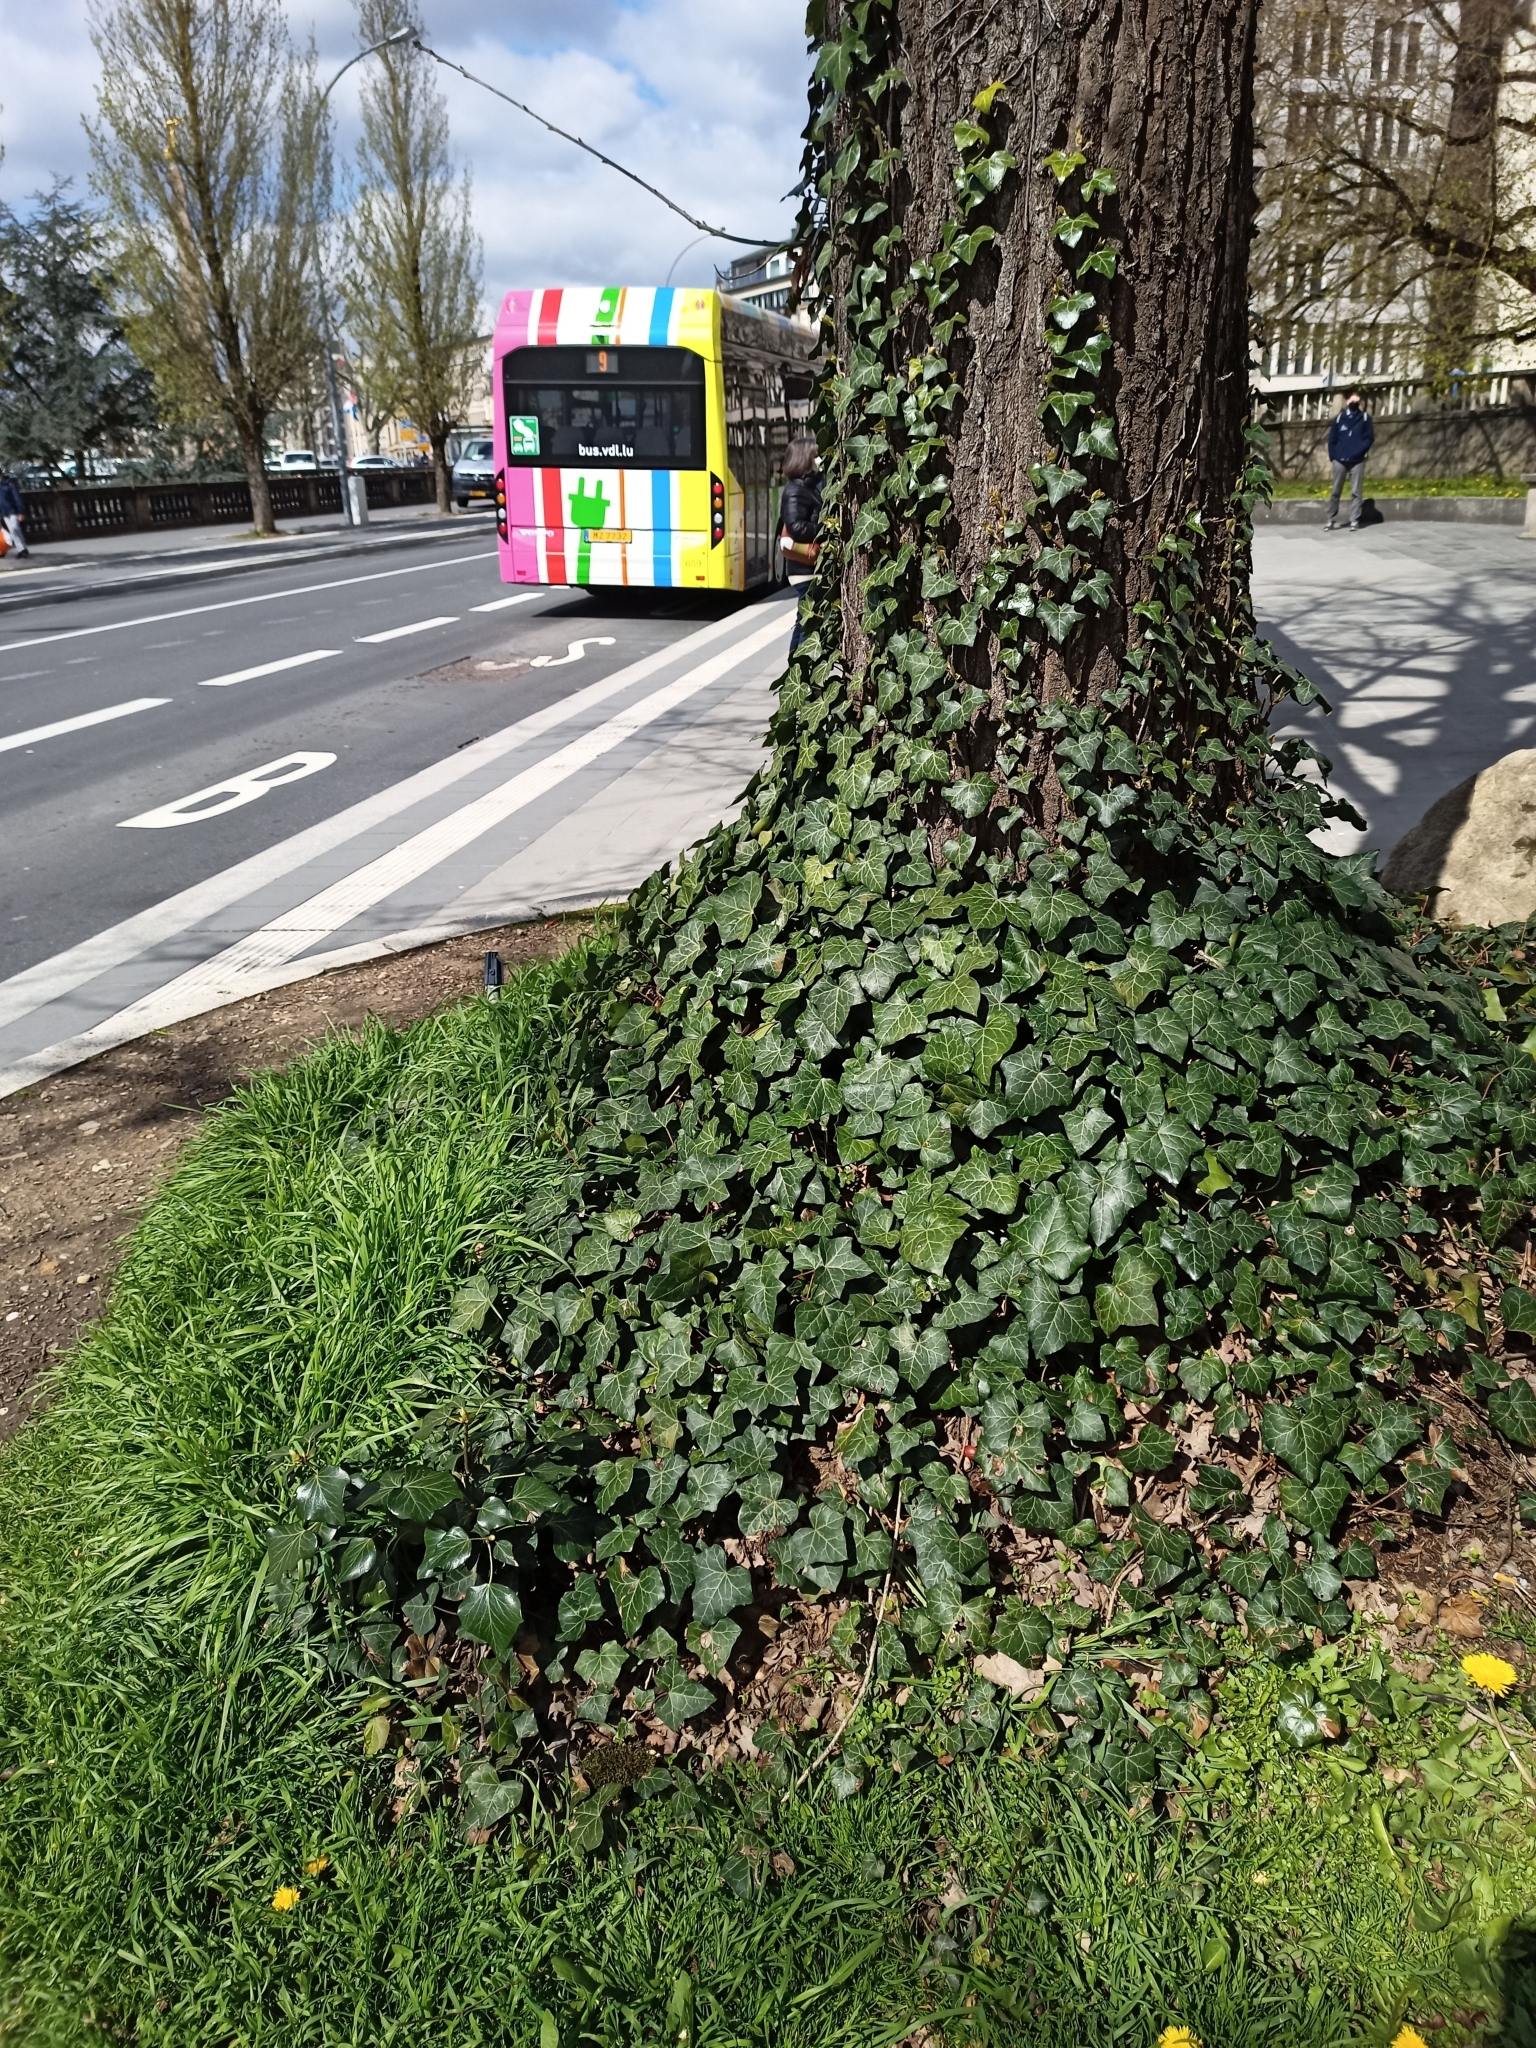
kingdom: Plantae
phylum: Tracheophyta
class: Magnoliopsida
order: Apiales
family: Araliaceae
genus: Hedera
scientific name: Hedera helix
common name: Ivy
